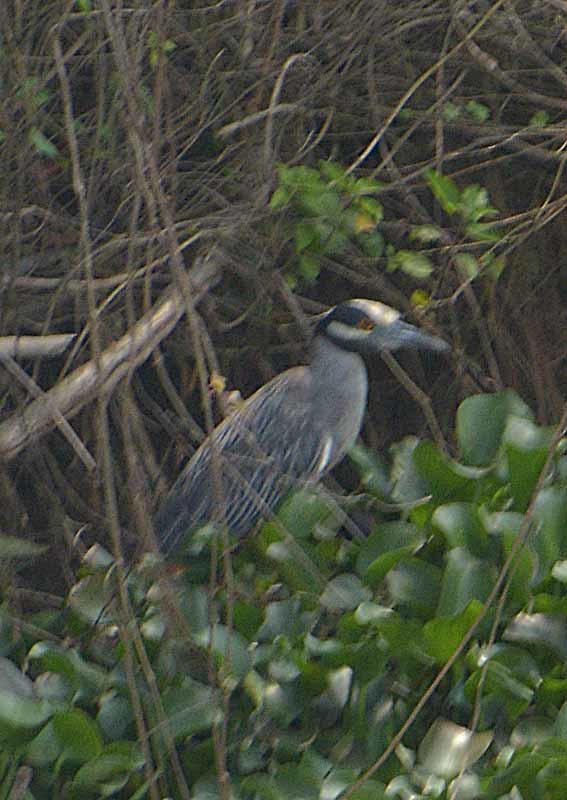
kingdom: Animalia
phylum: Chordata
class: Aves
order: Pelecaniformes
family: Ardeidae
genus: Nyctanassa
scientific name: Nyctanassa violacea
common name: Yellow-crowned night heron
